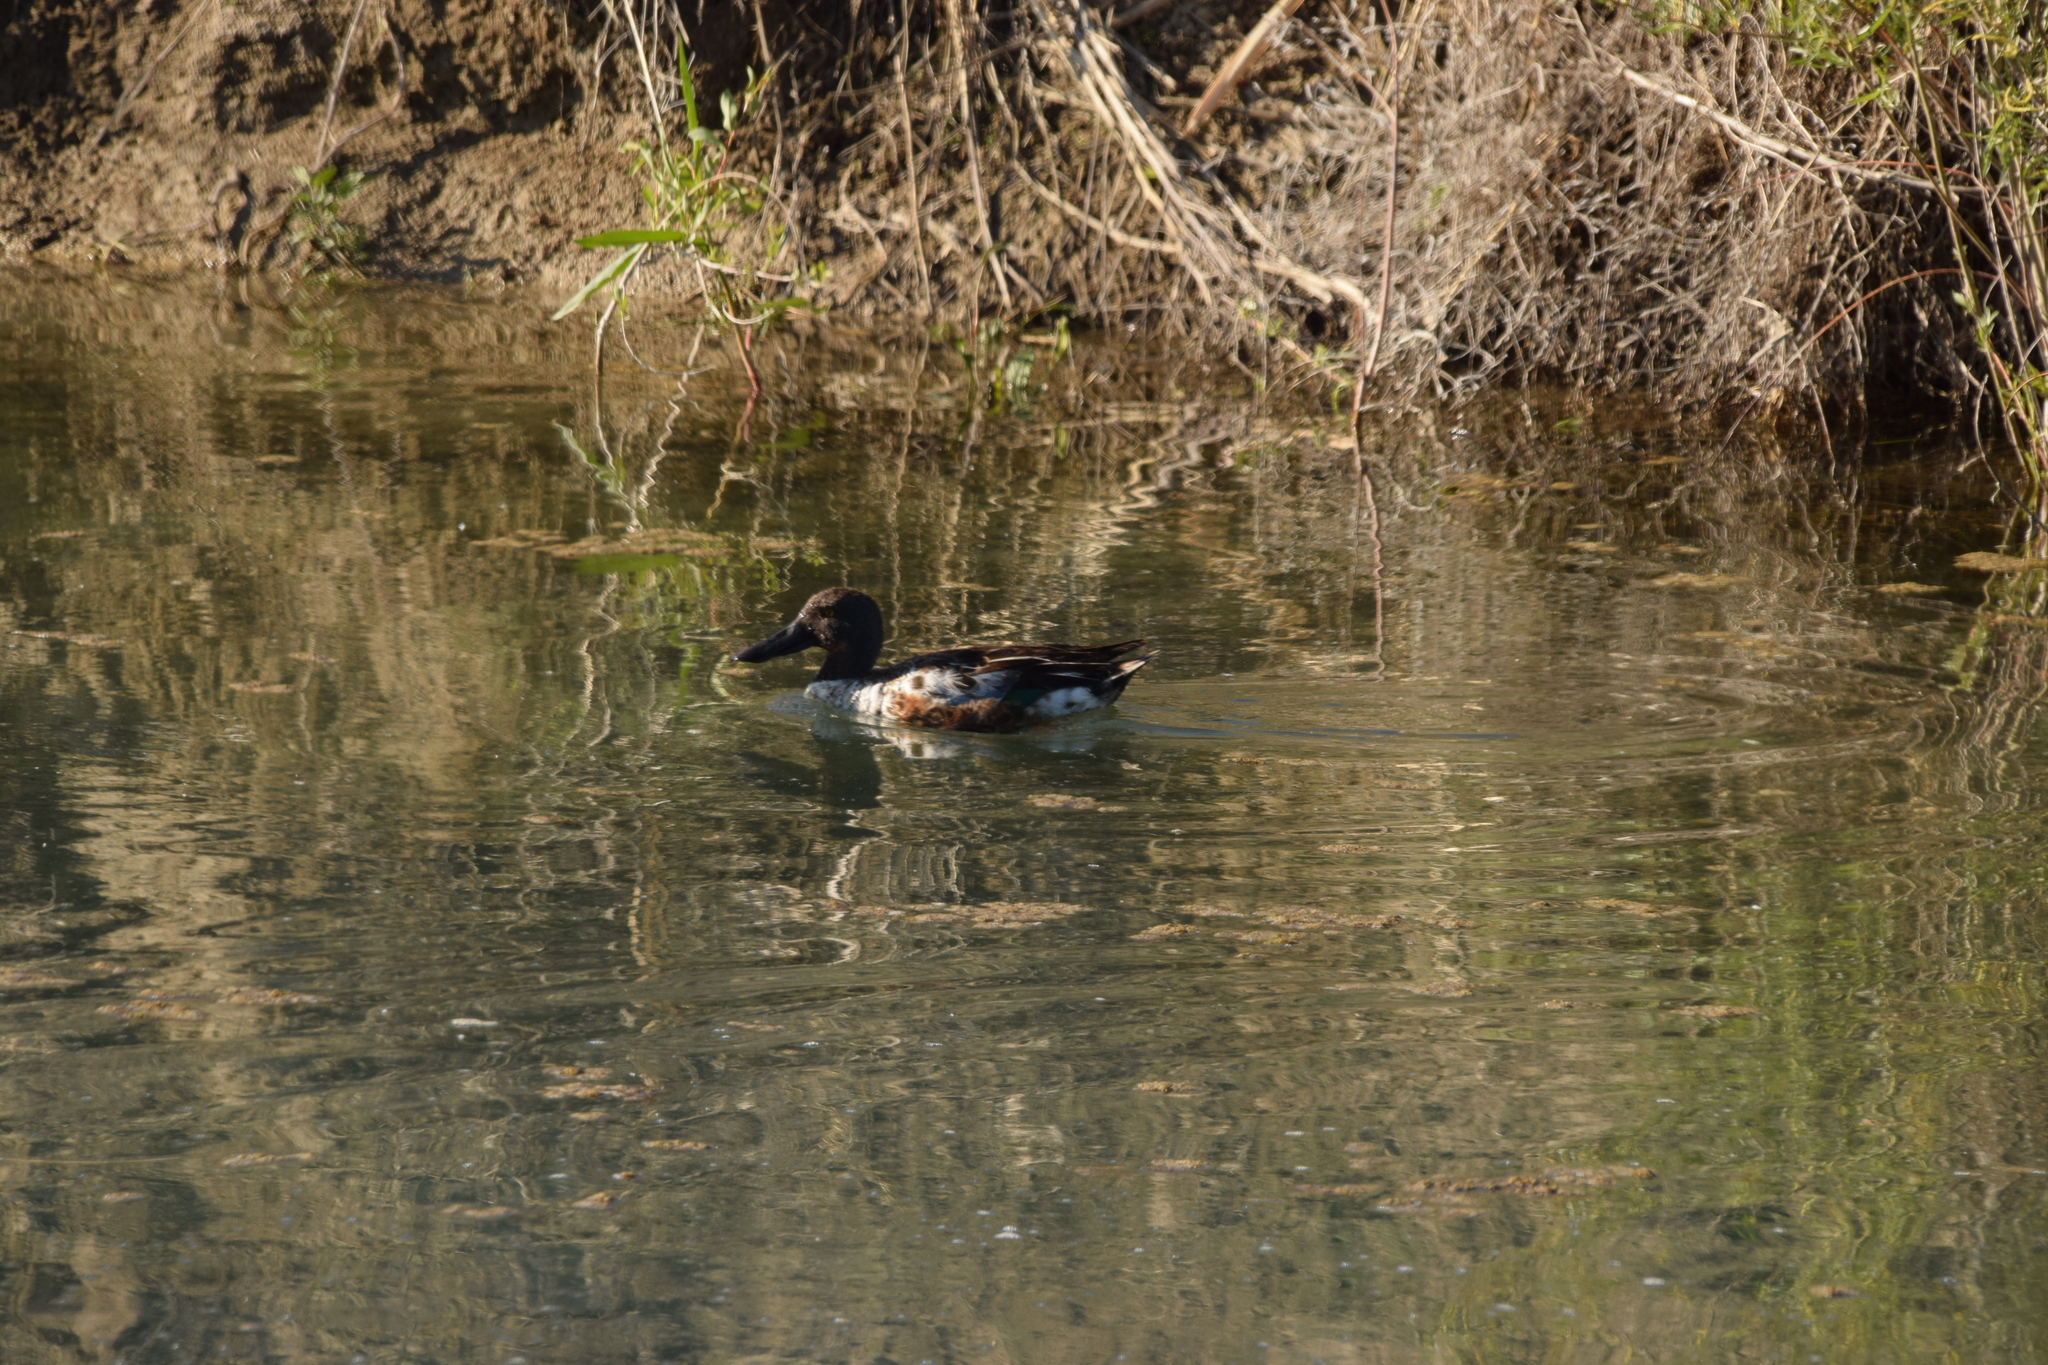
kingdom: Animalia
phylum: Chordata
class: Aves
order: Anseriformes
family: Anatidae
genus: Spatula
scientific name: Spatula clypeata
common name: Northern shoveler
